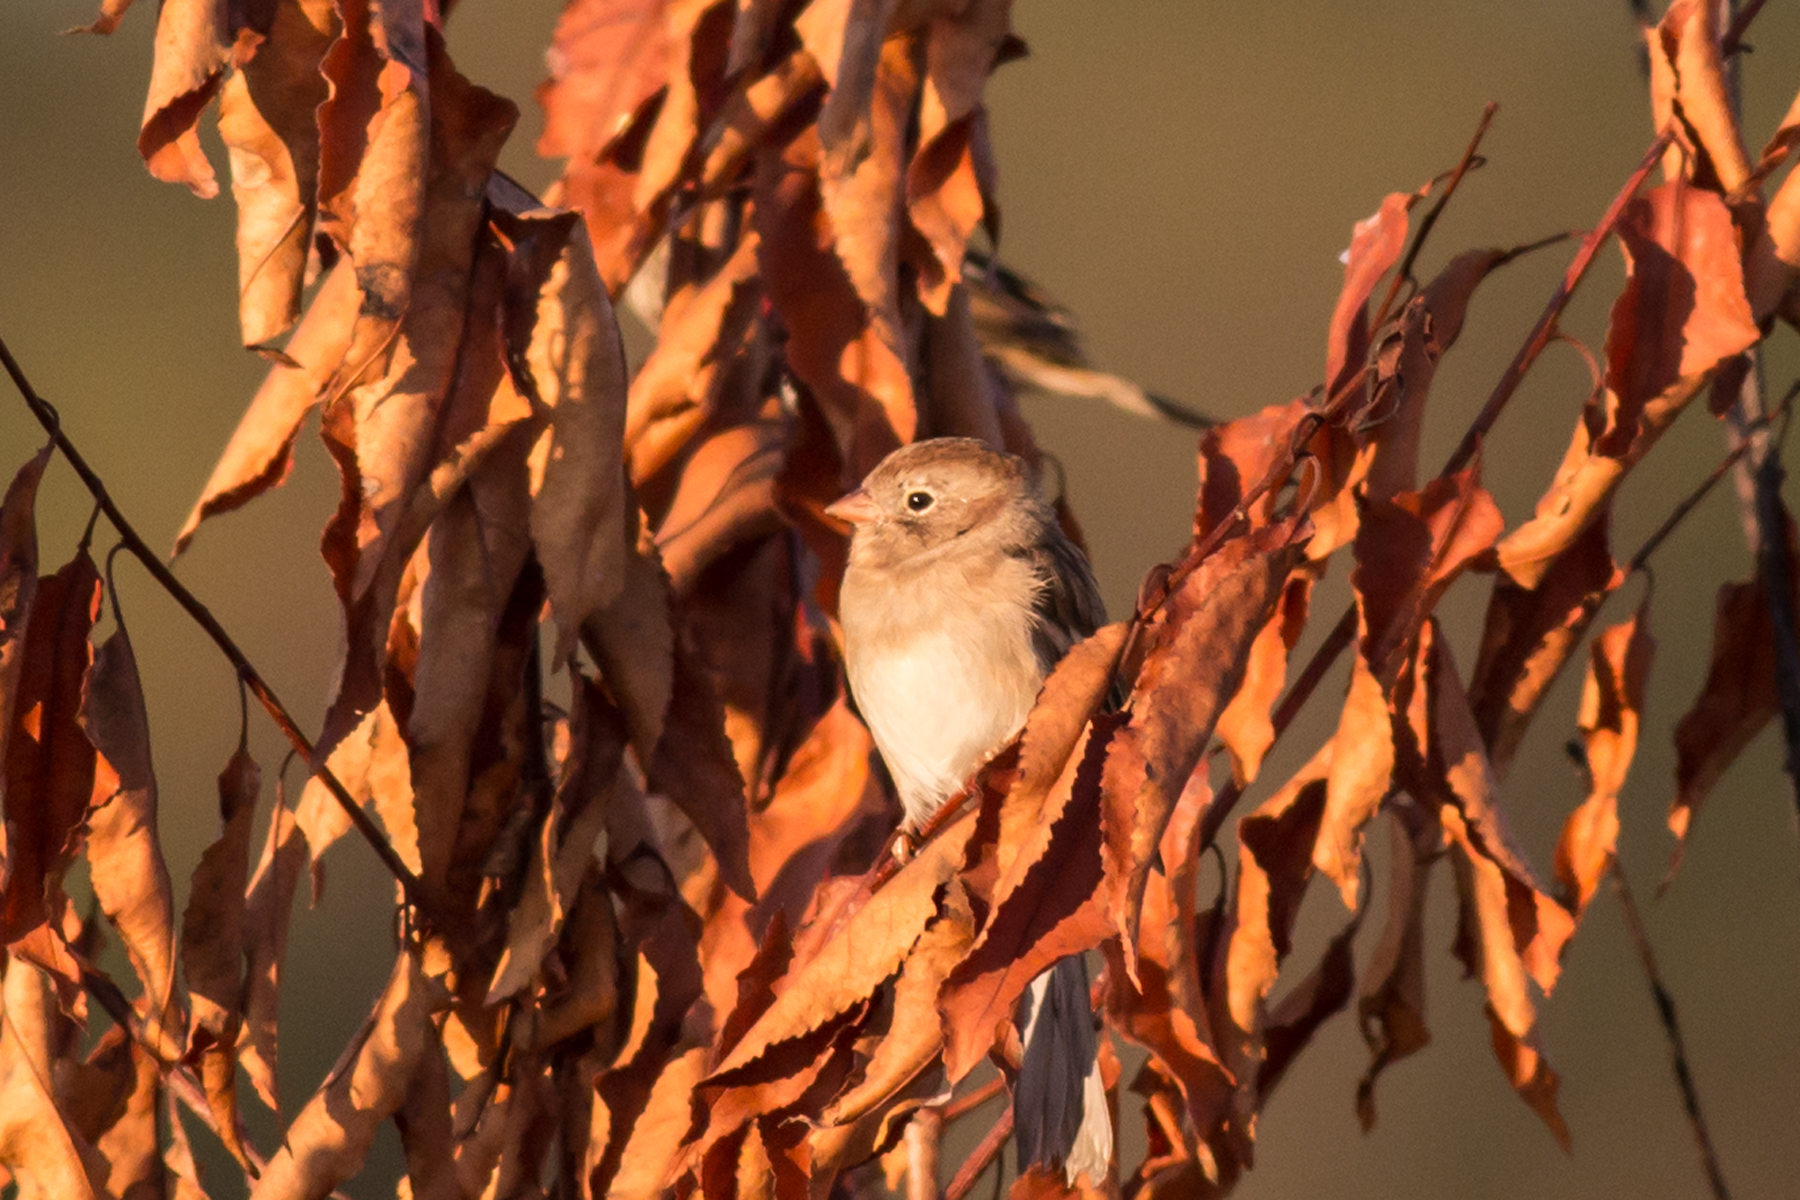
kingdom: Animalia
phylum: Chordata
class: Aves
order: Passeriformes
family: Passerellidae
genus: Spizella
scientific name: Spizella pusilla
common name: Field sparrow
